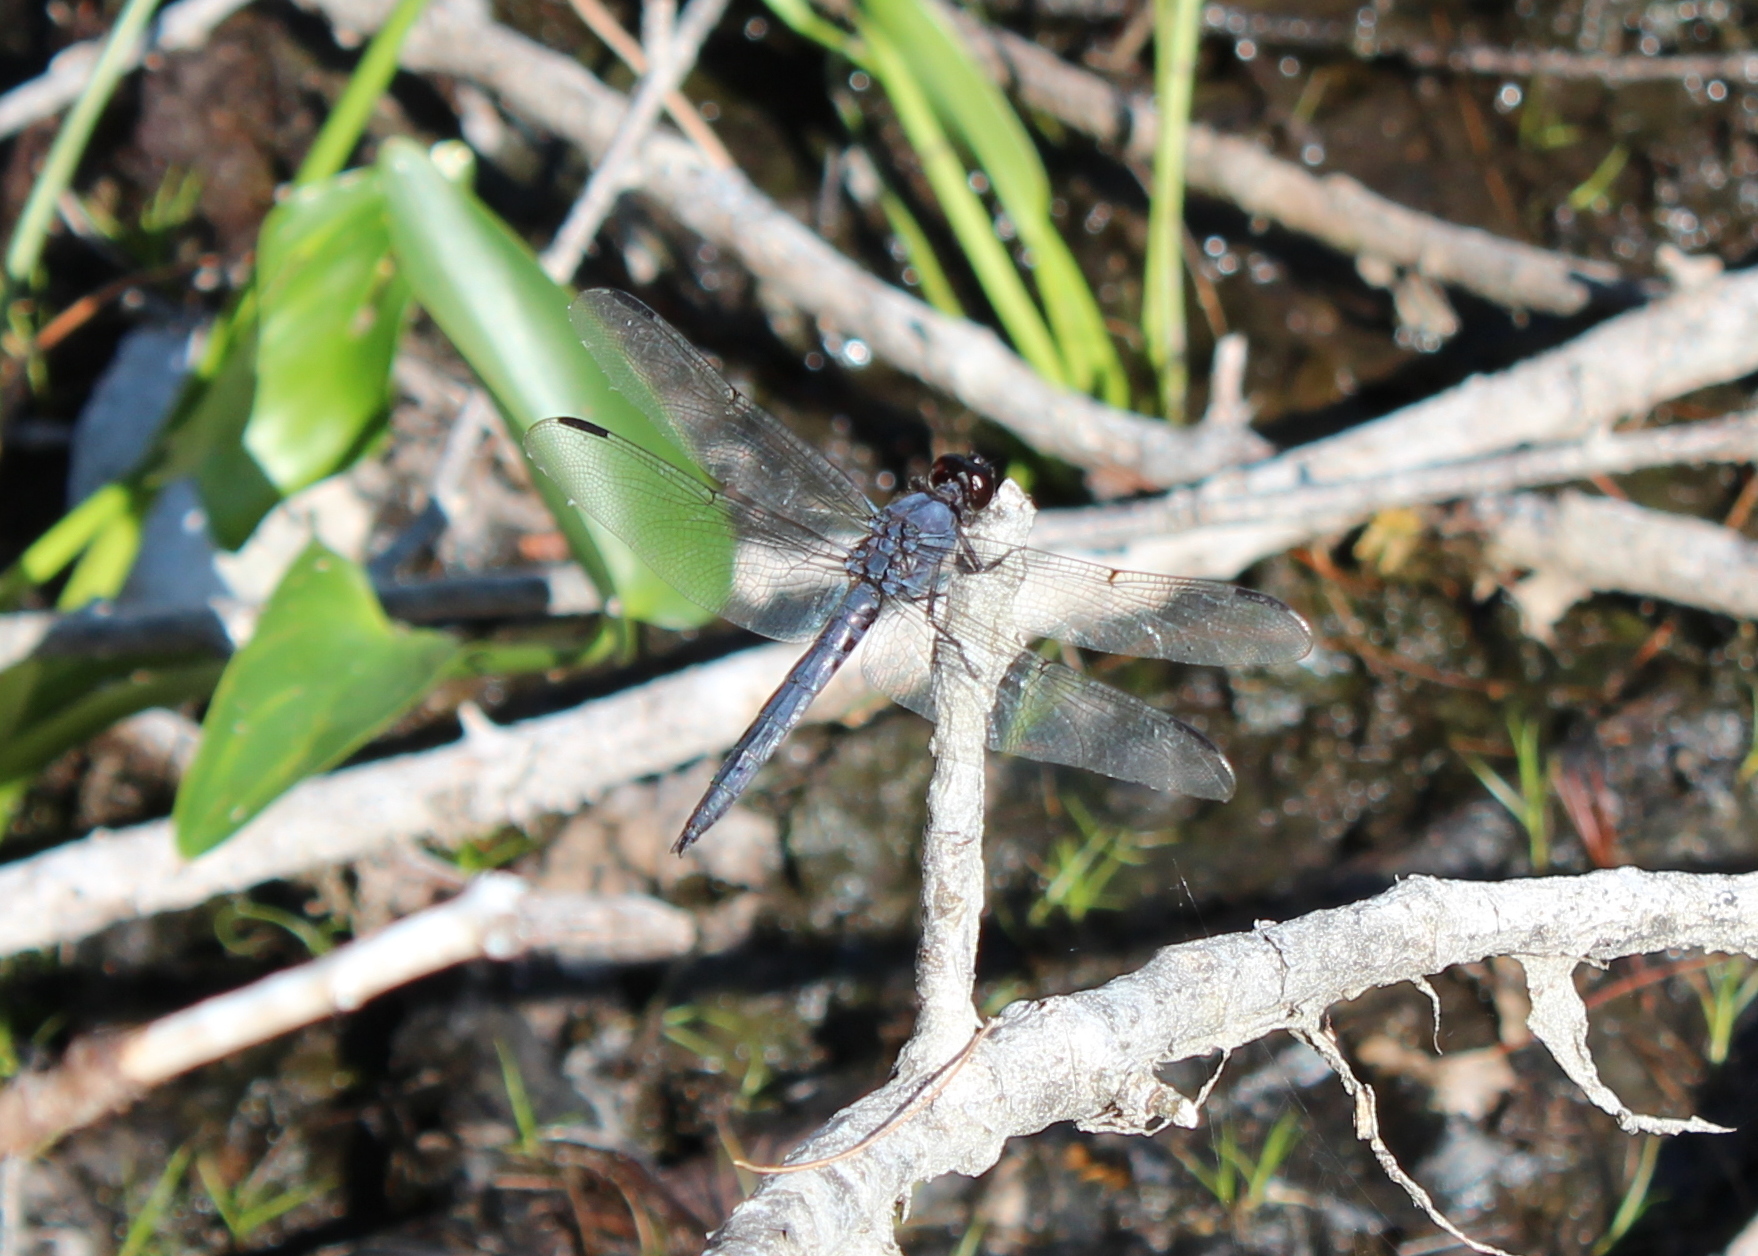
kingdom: Animalia
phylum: Arthropoda
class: Insecta
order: Odonata
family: Libellulidae
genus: Libellula
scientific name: Libellula incesta
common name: Slaty skimmer
